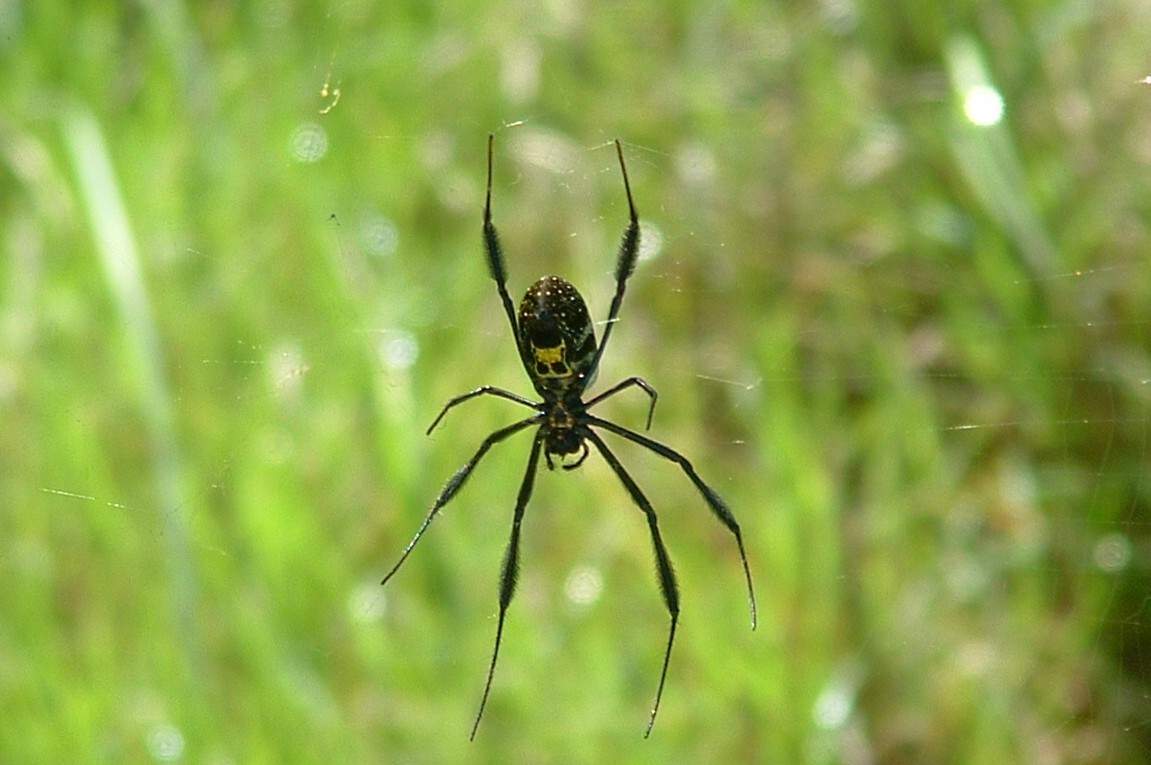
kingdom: Animalia
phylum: Arthropoda
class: Arachnida
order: Araneae
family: Araneidae
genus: Trichonephila
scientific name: Trichonephila fenestrata
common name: Hairy golden orb weaver
